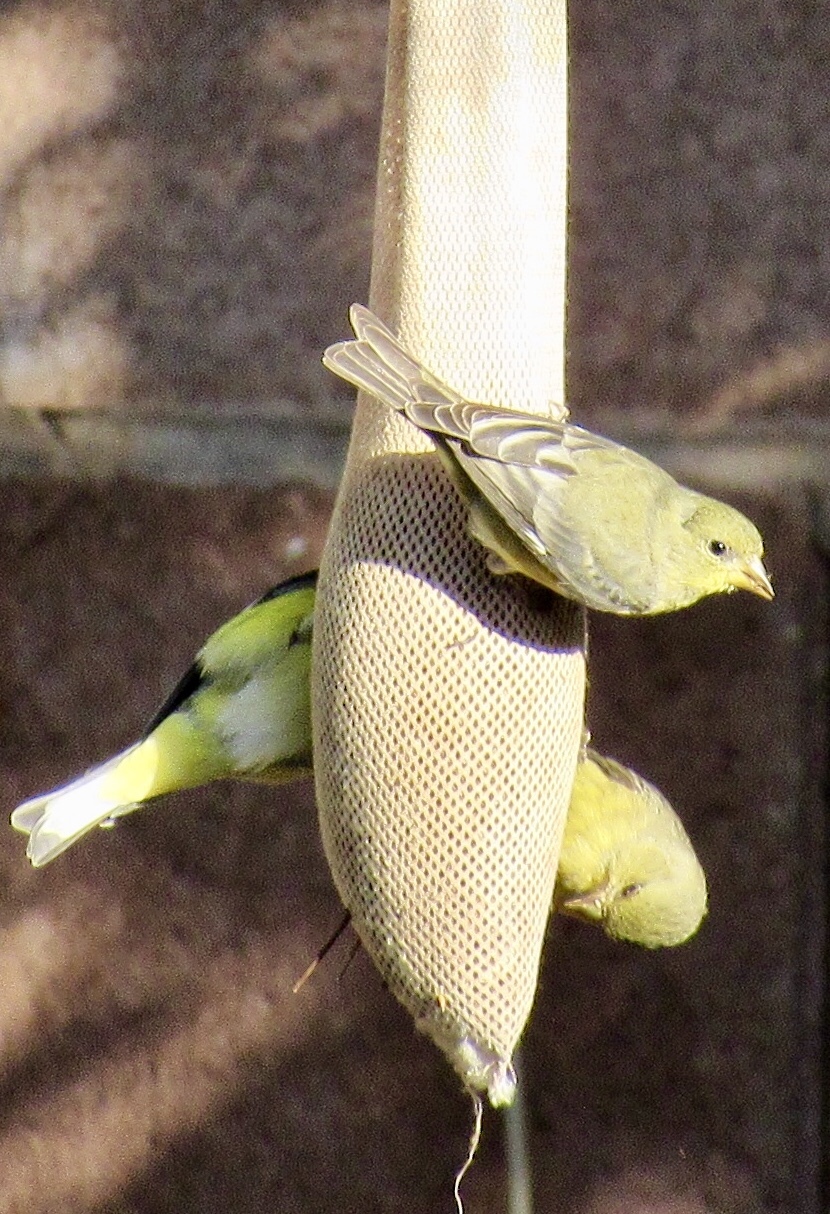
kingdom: Animalia
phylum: Chordata
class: Aves
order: Passeriformes
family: Fringillidae
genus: Spinus
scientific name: Spinus psaltria
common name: Lesser goldfinch
